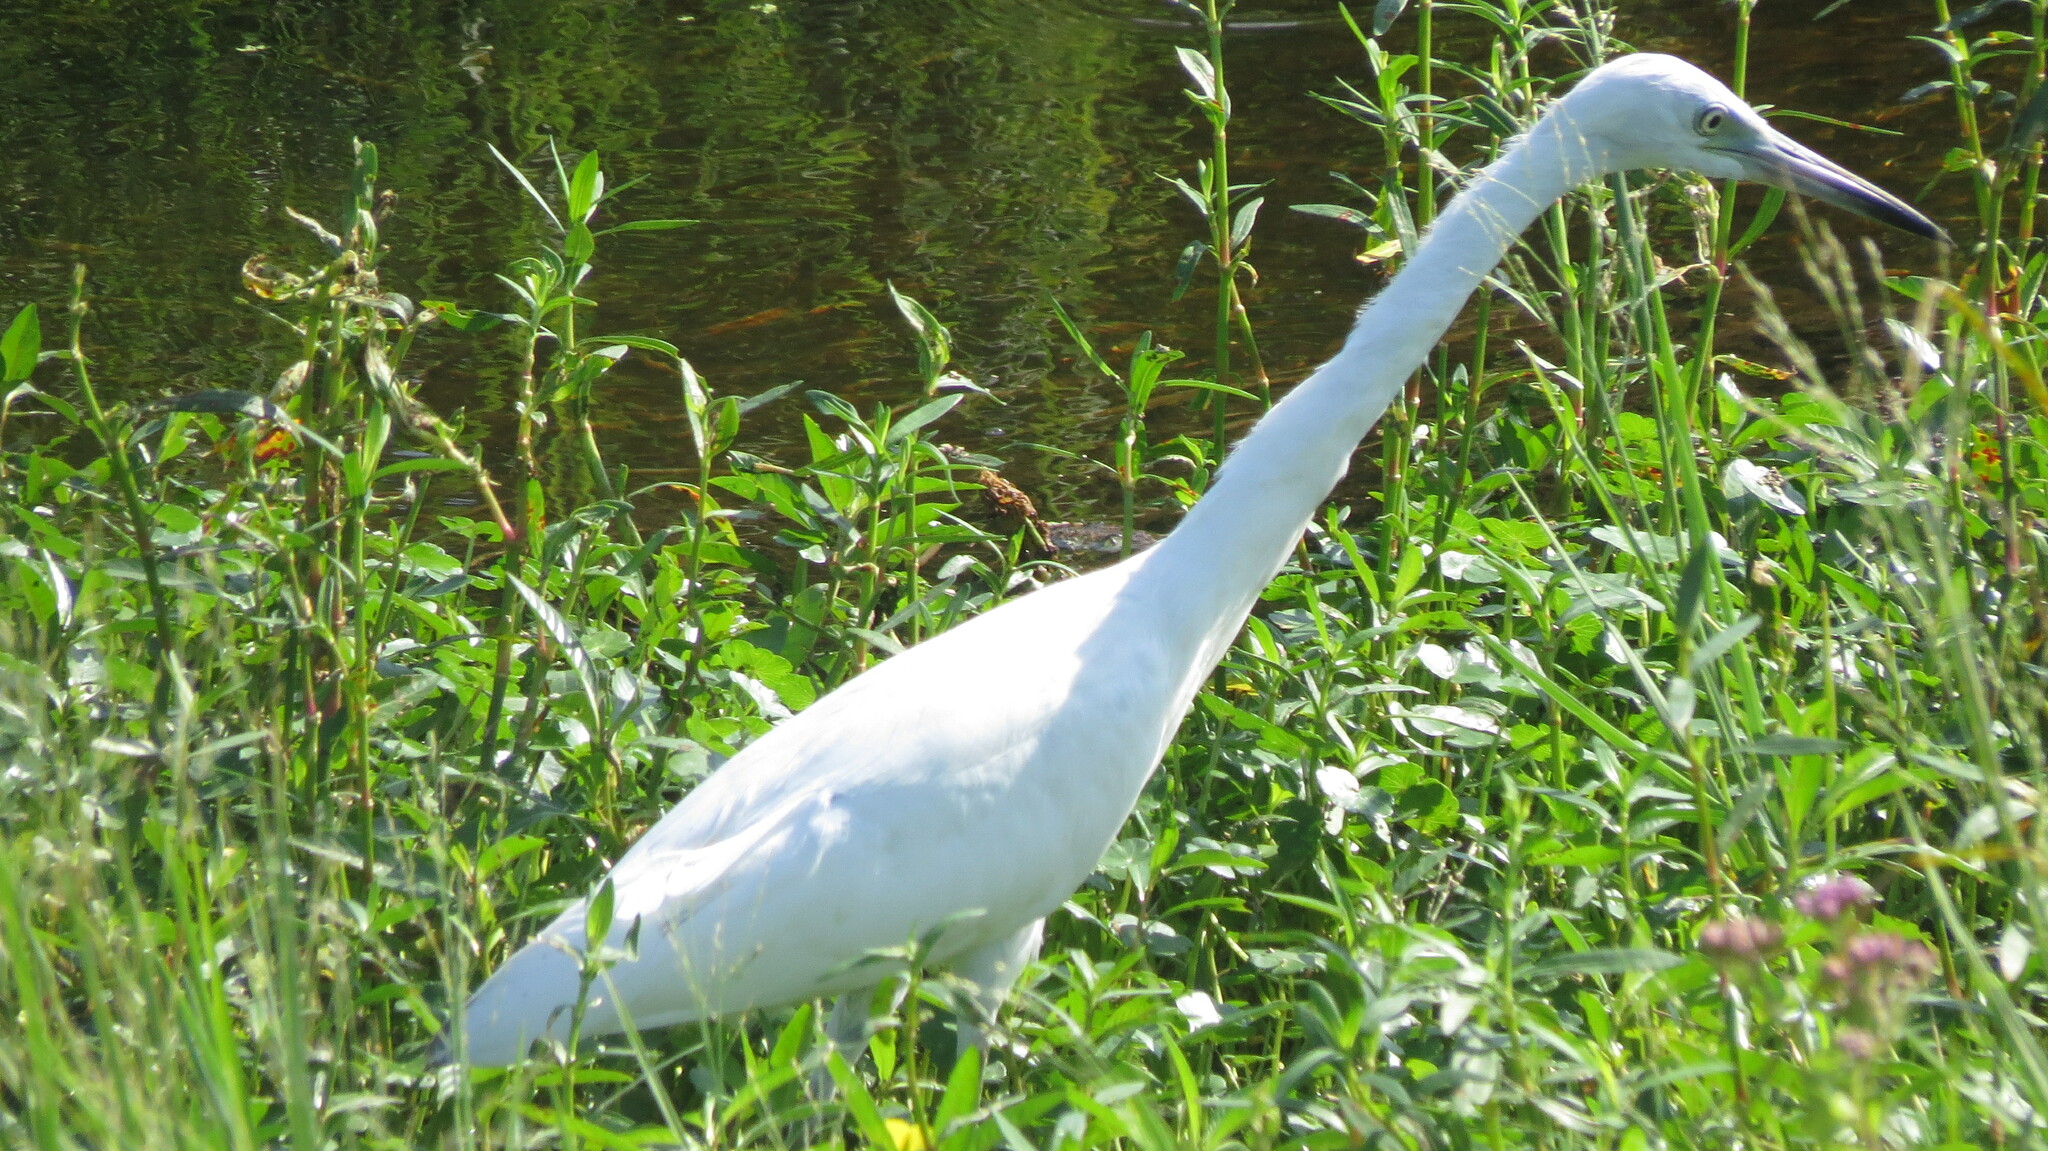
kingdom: Animalia
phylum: Chordata
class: Aves
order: Pelecaniformes
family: Ardeidae
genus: Egretta
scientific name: Egretta caerulea
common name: Little blue heron
